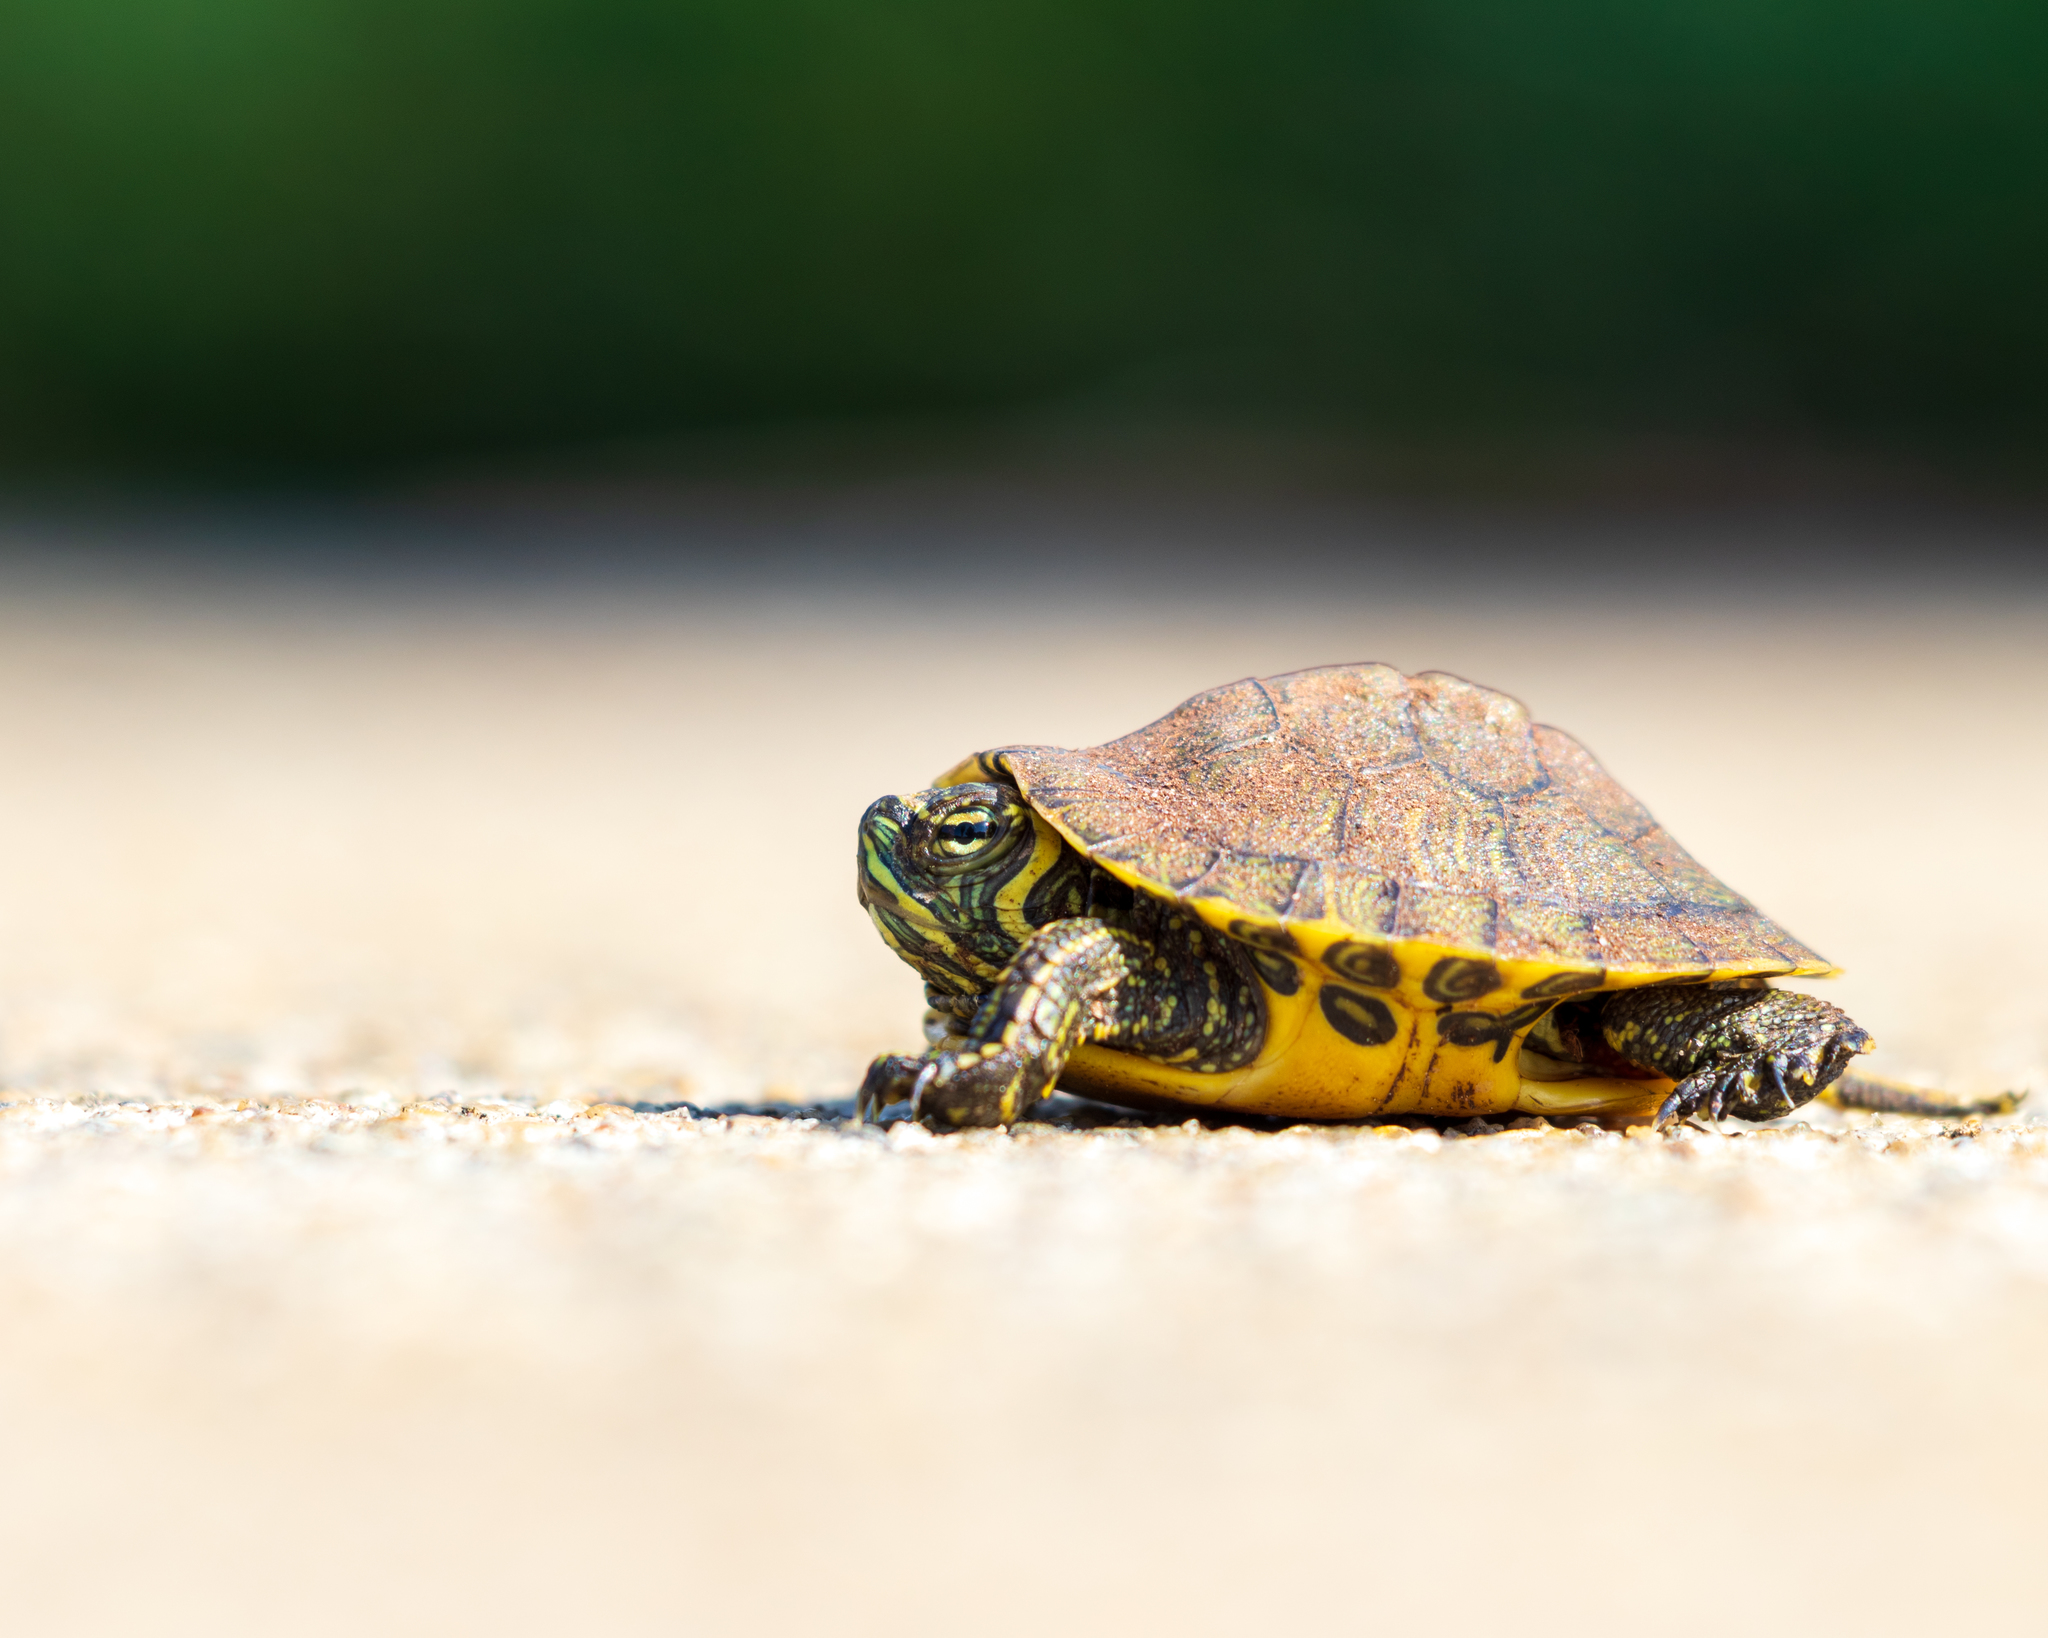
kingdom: Animalia
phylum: Chordata
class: Testudines
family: Emydidae
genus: Trachemys
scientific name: Trachemys scripta
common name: Slider
